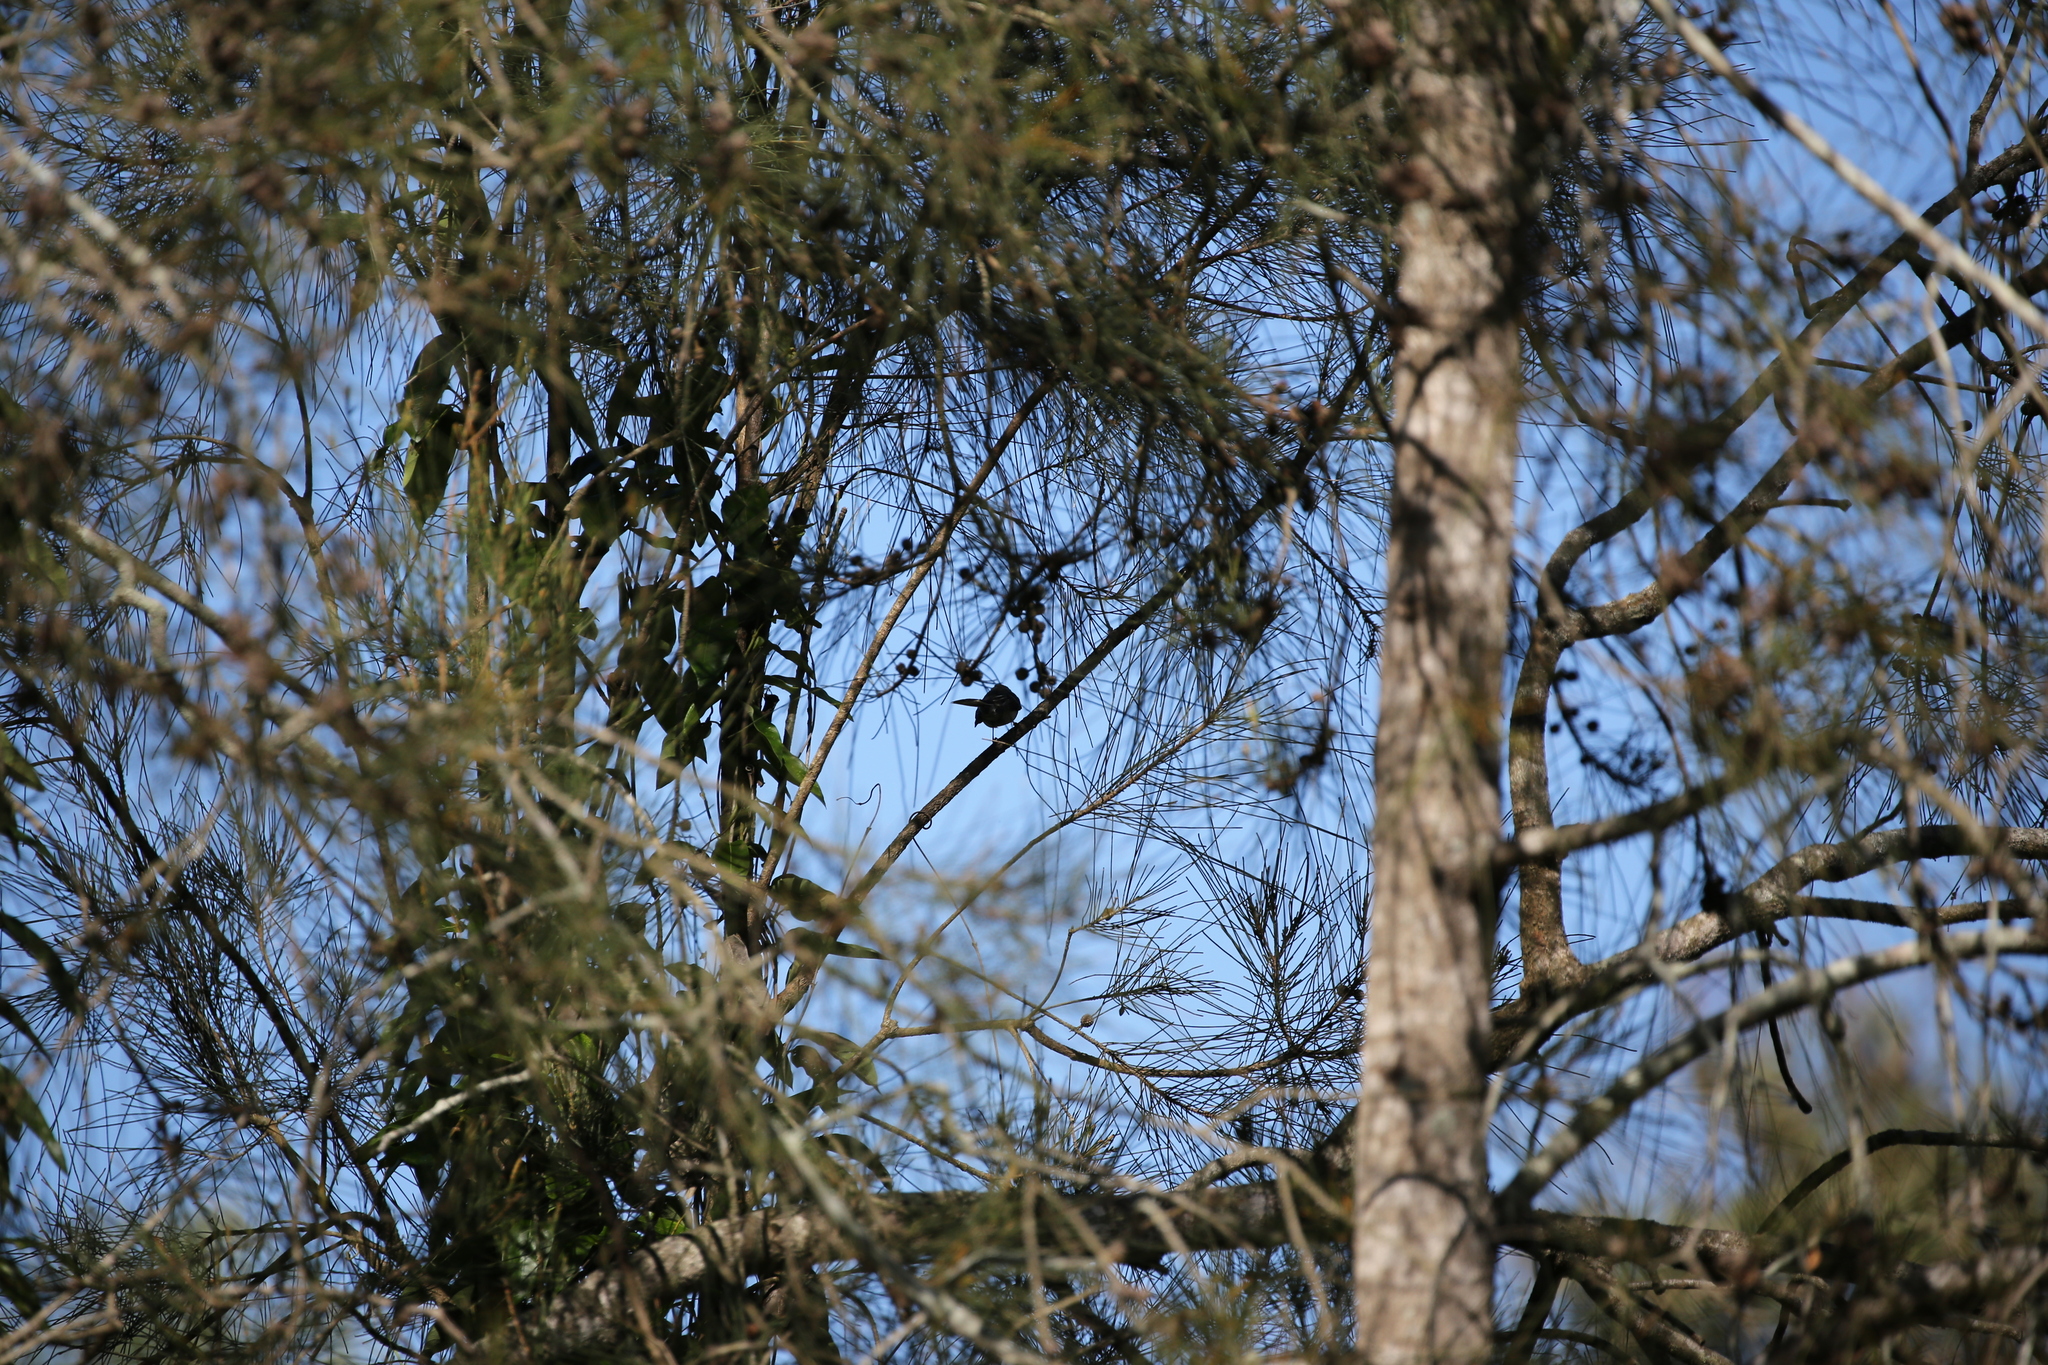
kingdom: Animalia
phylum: Chordata
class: Aves
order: Passeriformes
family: Rhipiduridae
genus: Rhipidura
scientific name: Rhipidura albiscapa
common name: Grey fantail
